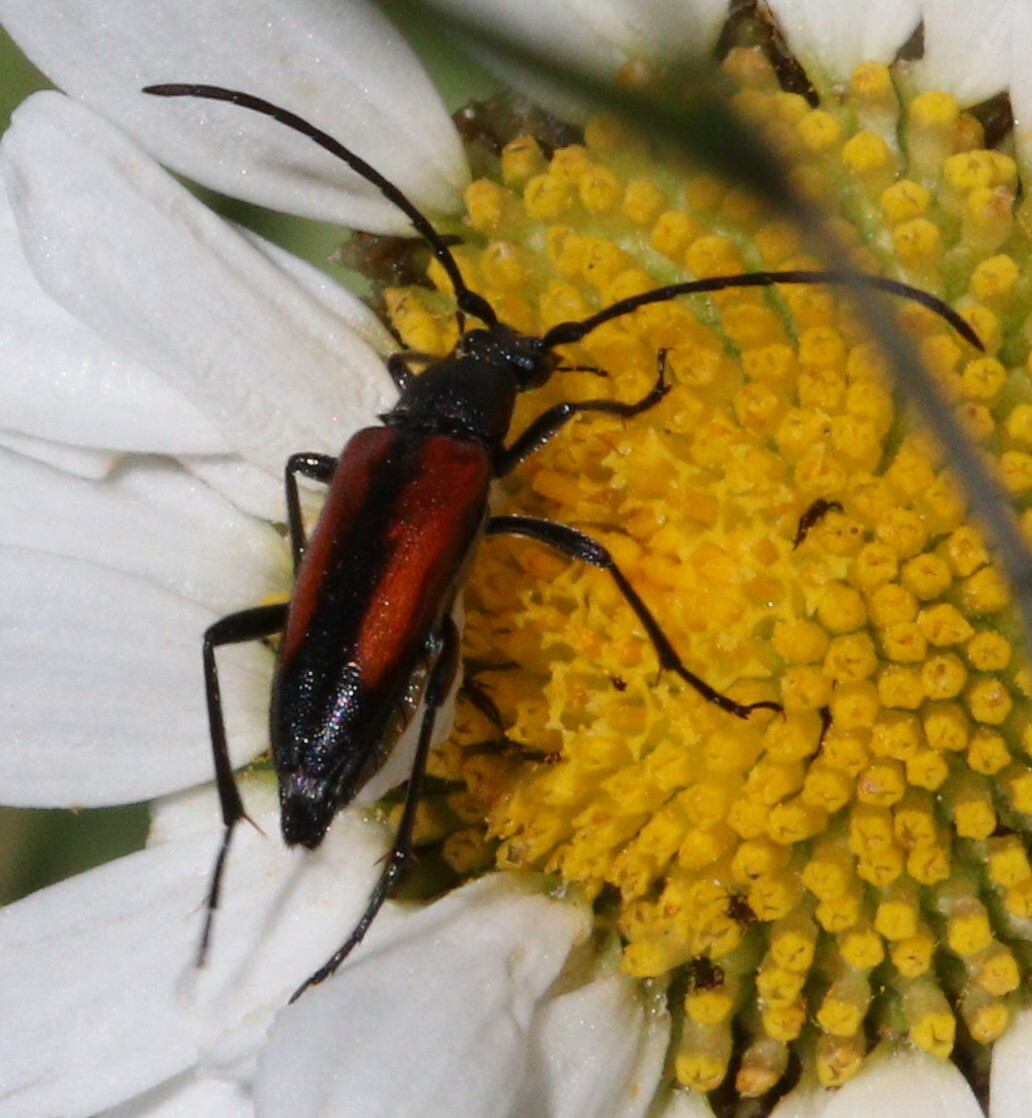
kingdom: Animalia
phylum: Arthropoda
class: Insecta
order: Coleoptera
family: Cerambycidae
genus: Stenurella
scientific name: Stenurella melanura
